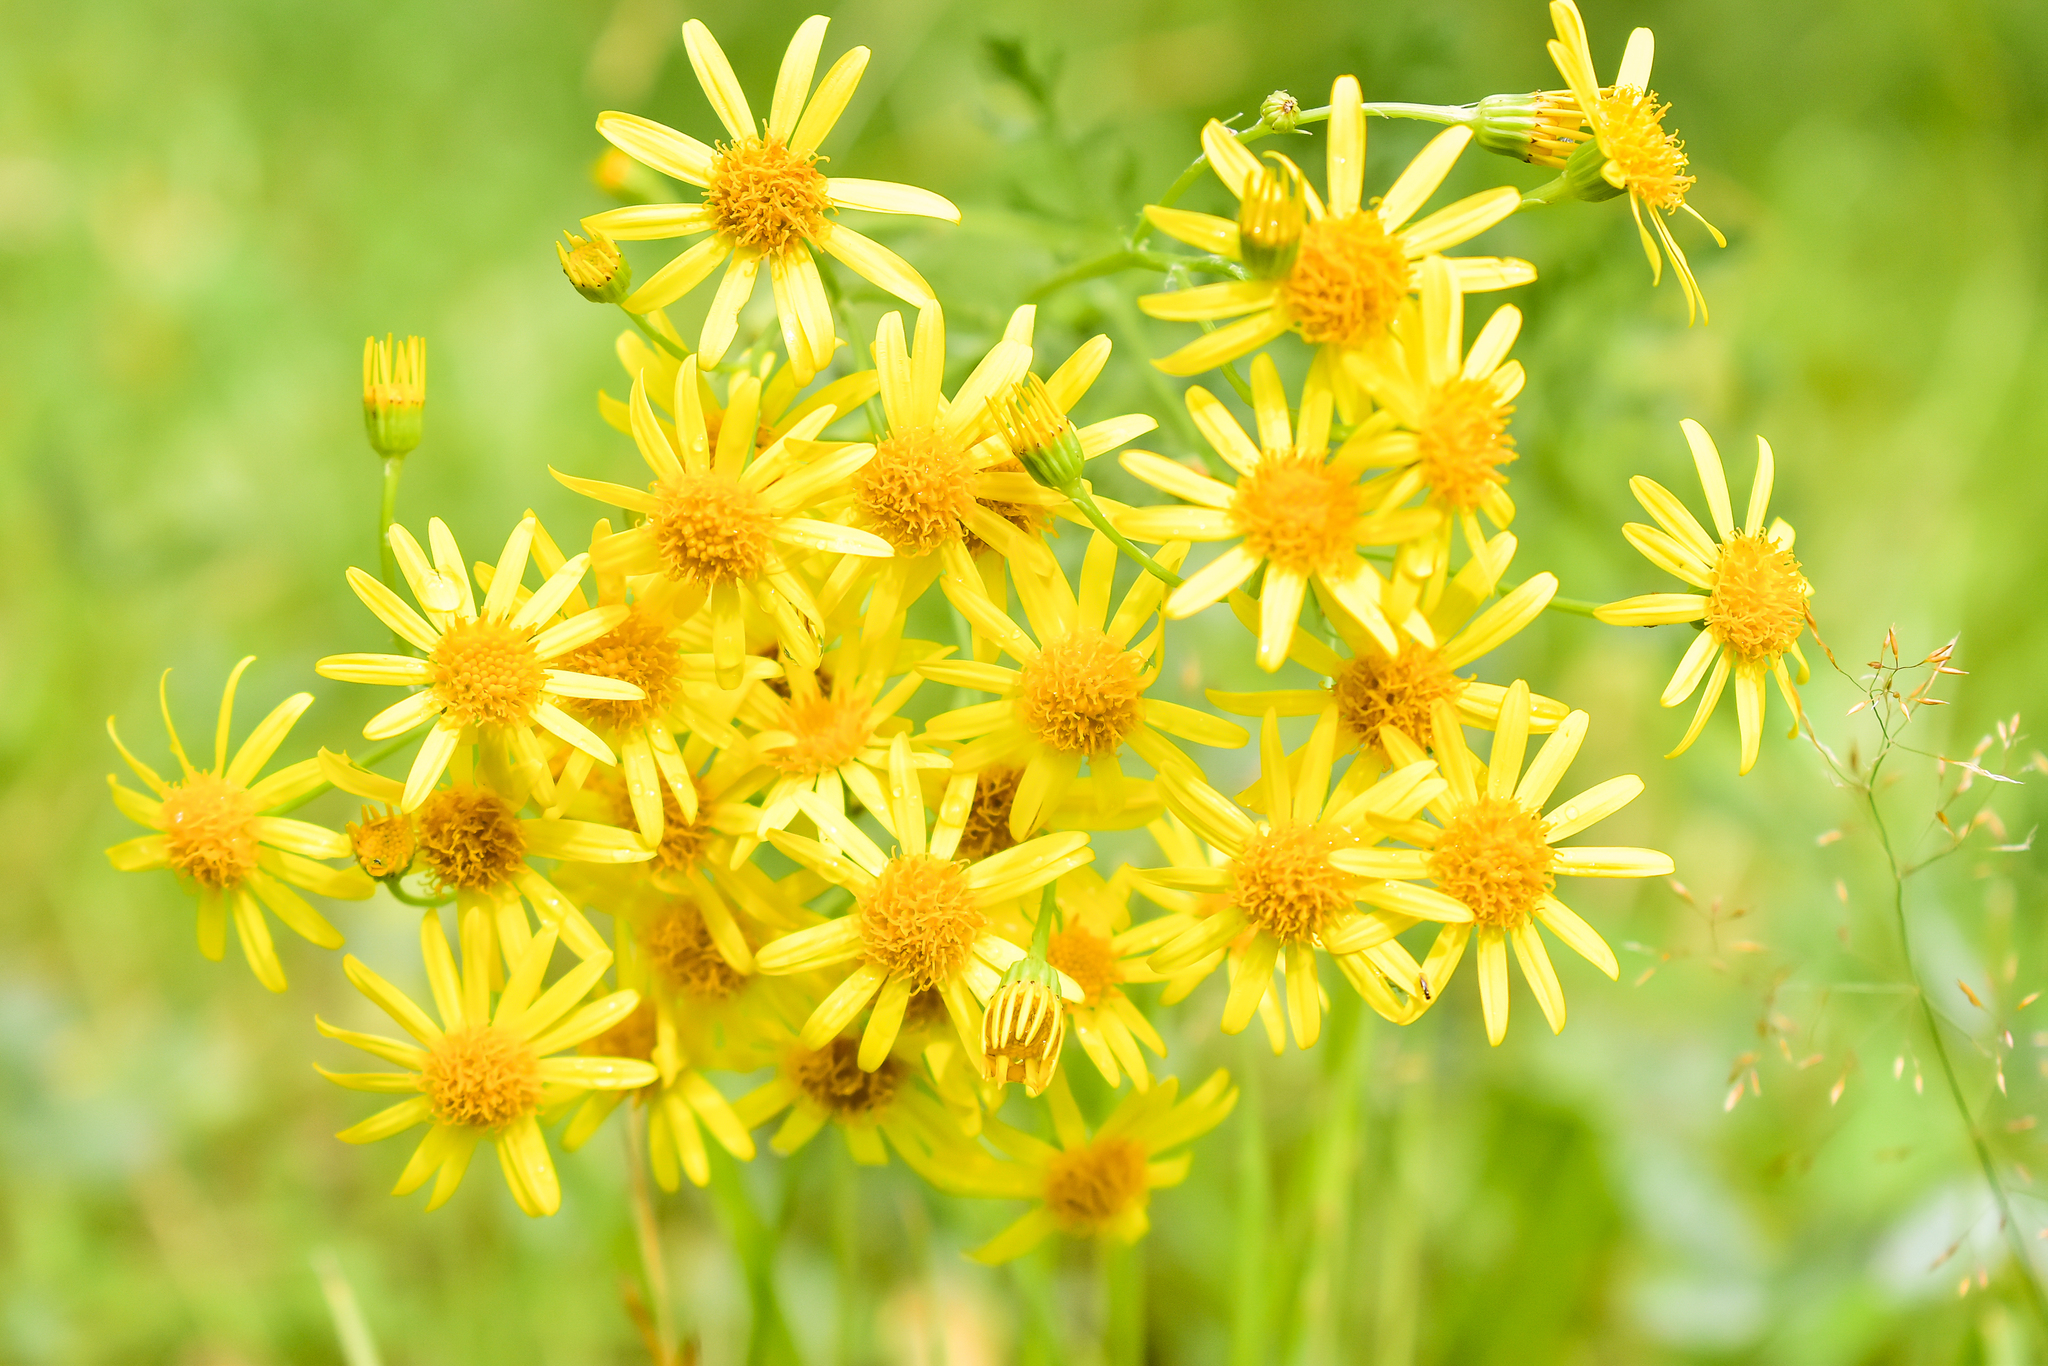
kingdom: Plantae
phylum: Tracheophyta
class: Magnoliopsida
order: Asterales
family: Asteraceae
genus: Jacobaea
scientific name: Jacobaea vulgaris
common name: Stinking willie
